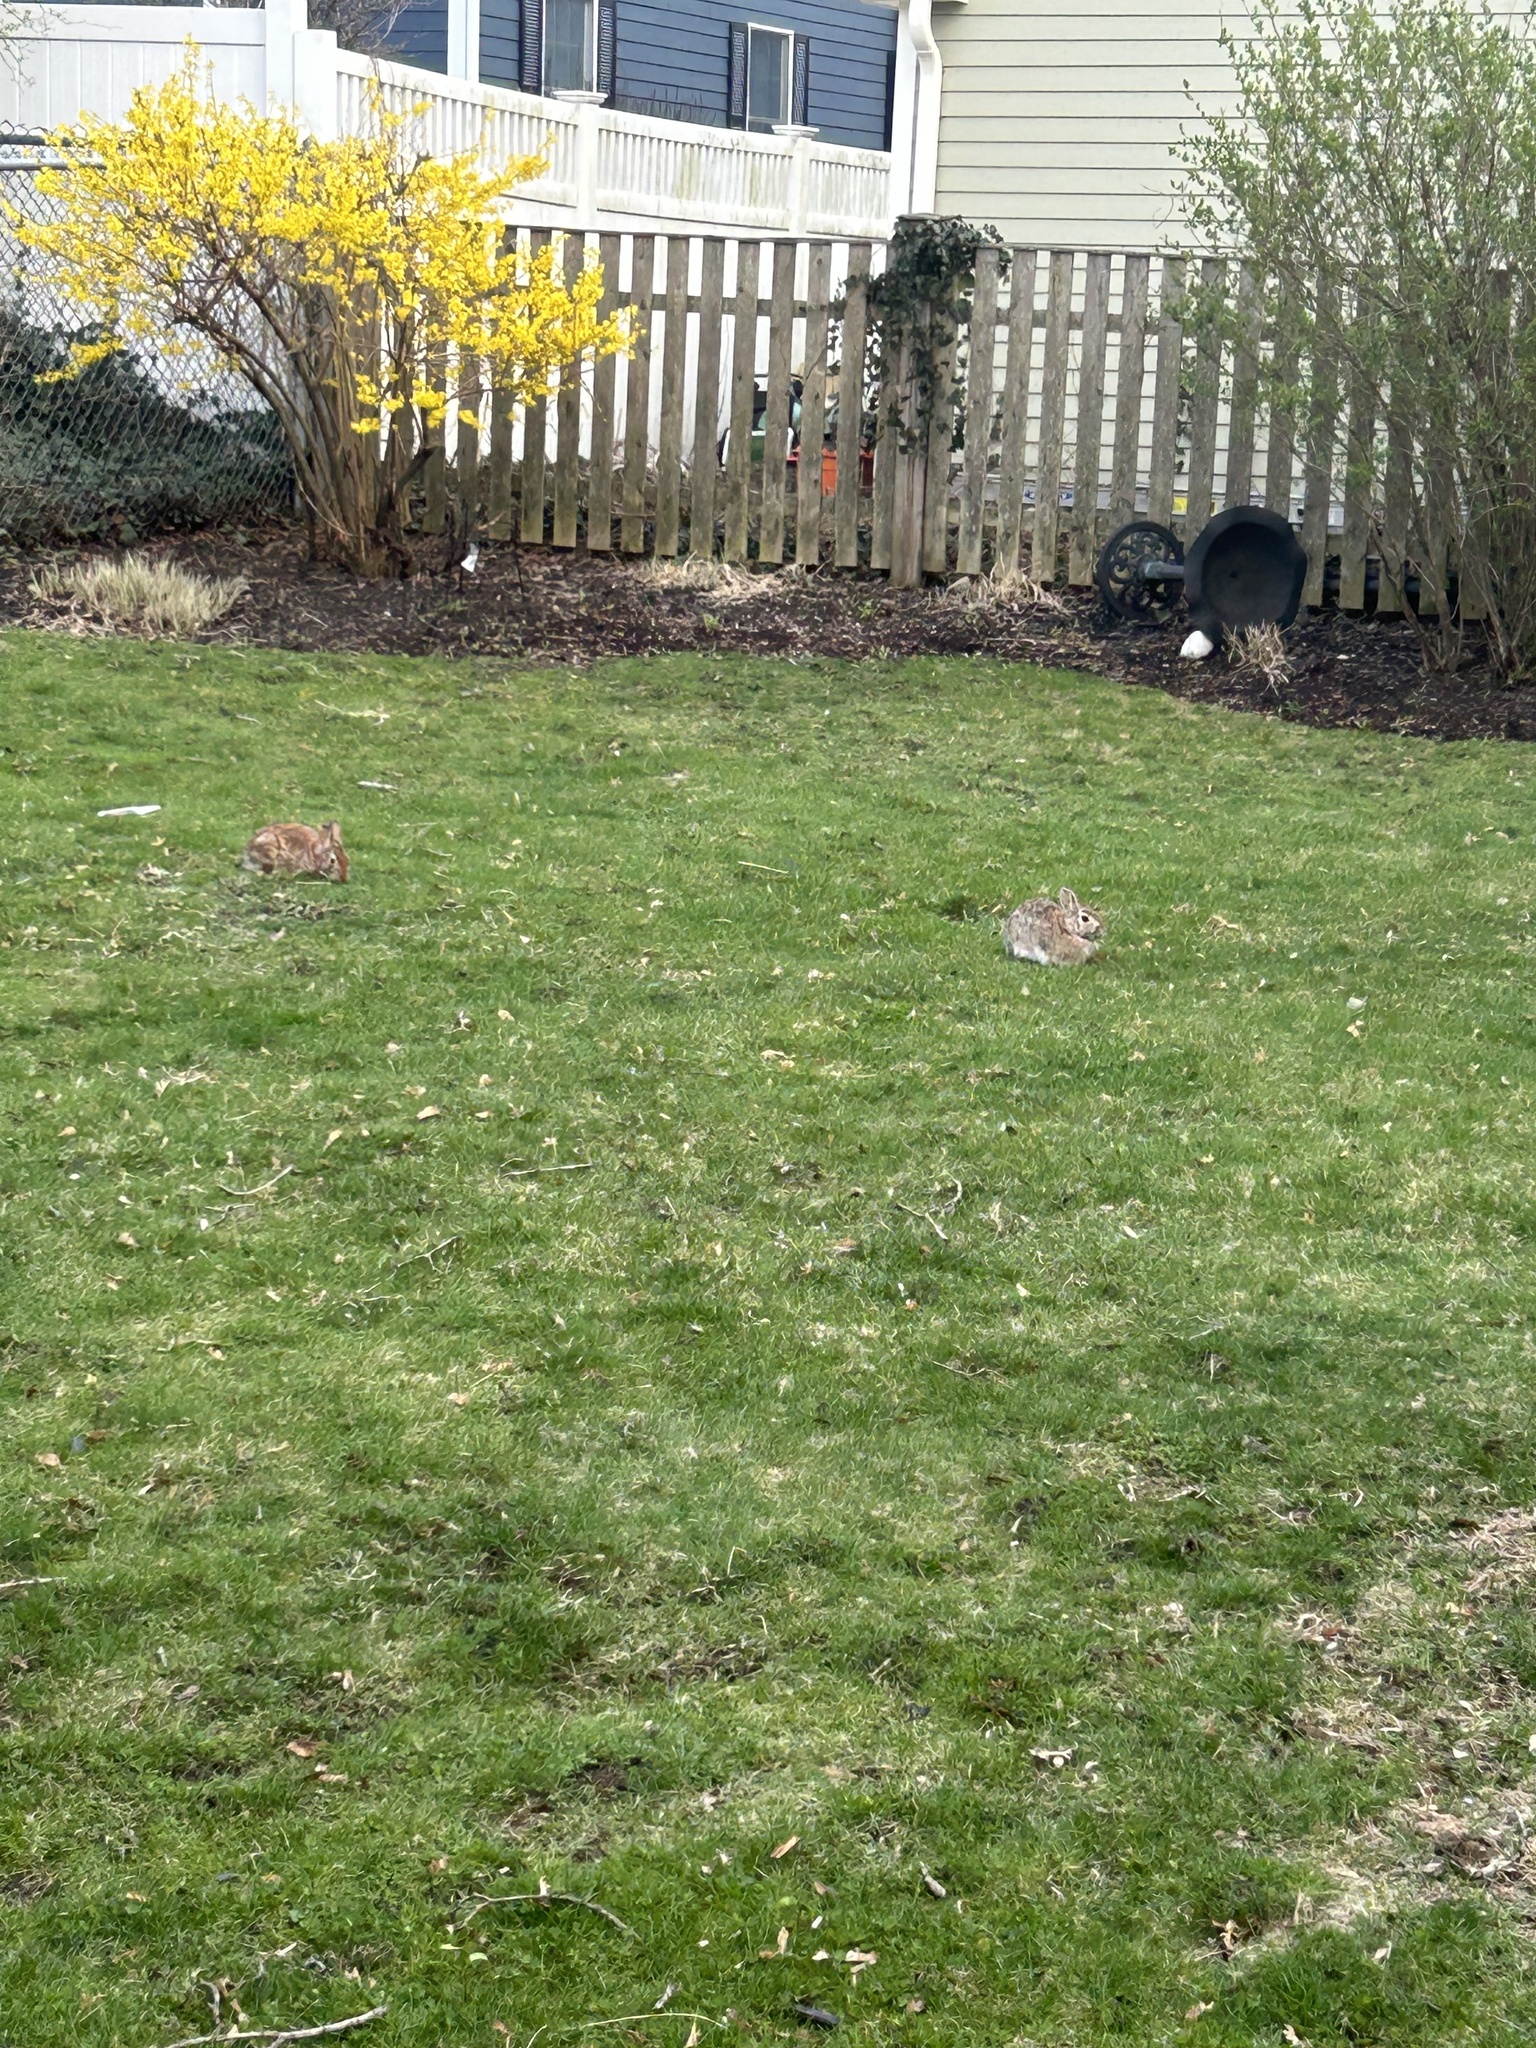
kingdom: Animalia
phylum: Chordata
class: Mammalia
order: Lagomorpha
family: Leporidae
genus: Sylvilagus
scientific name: Sylvilagus floridanus
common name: Eastern cottontail
